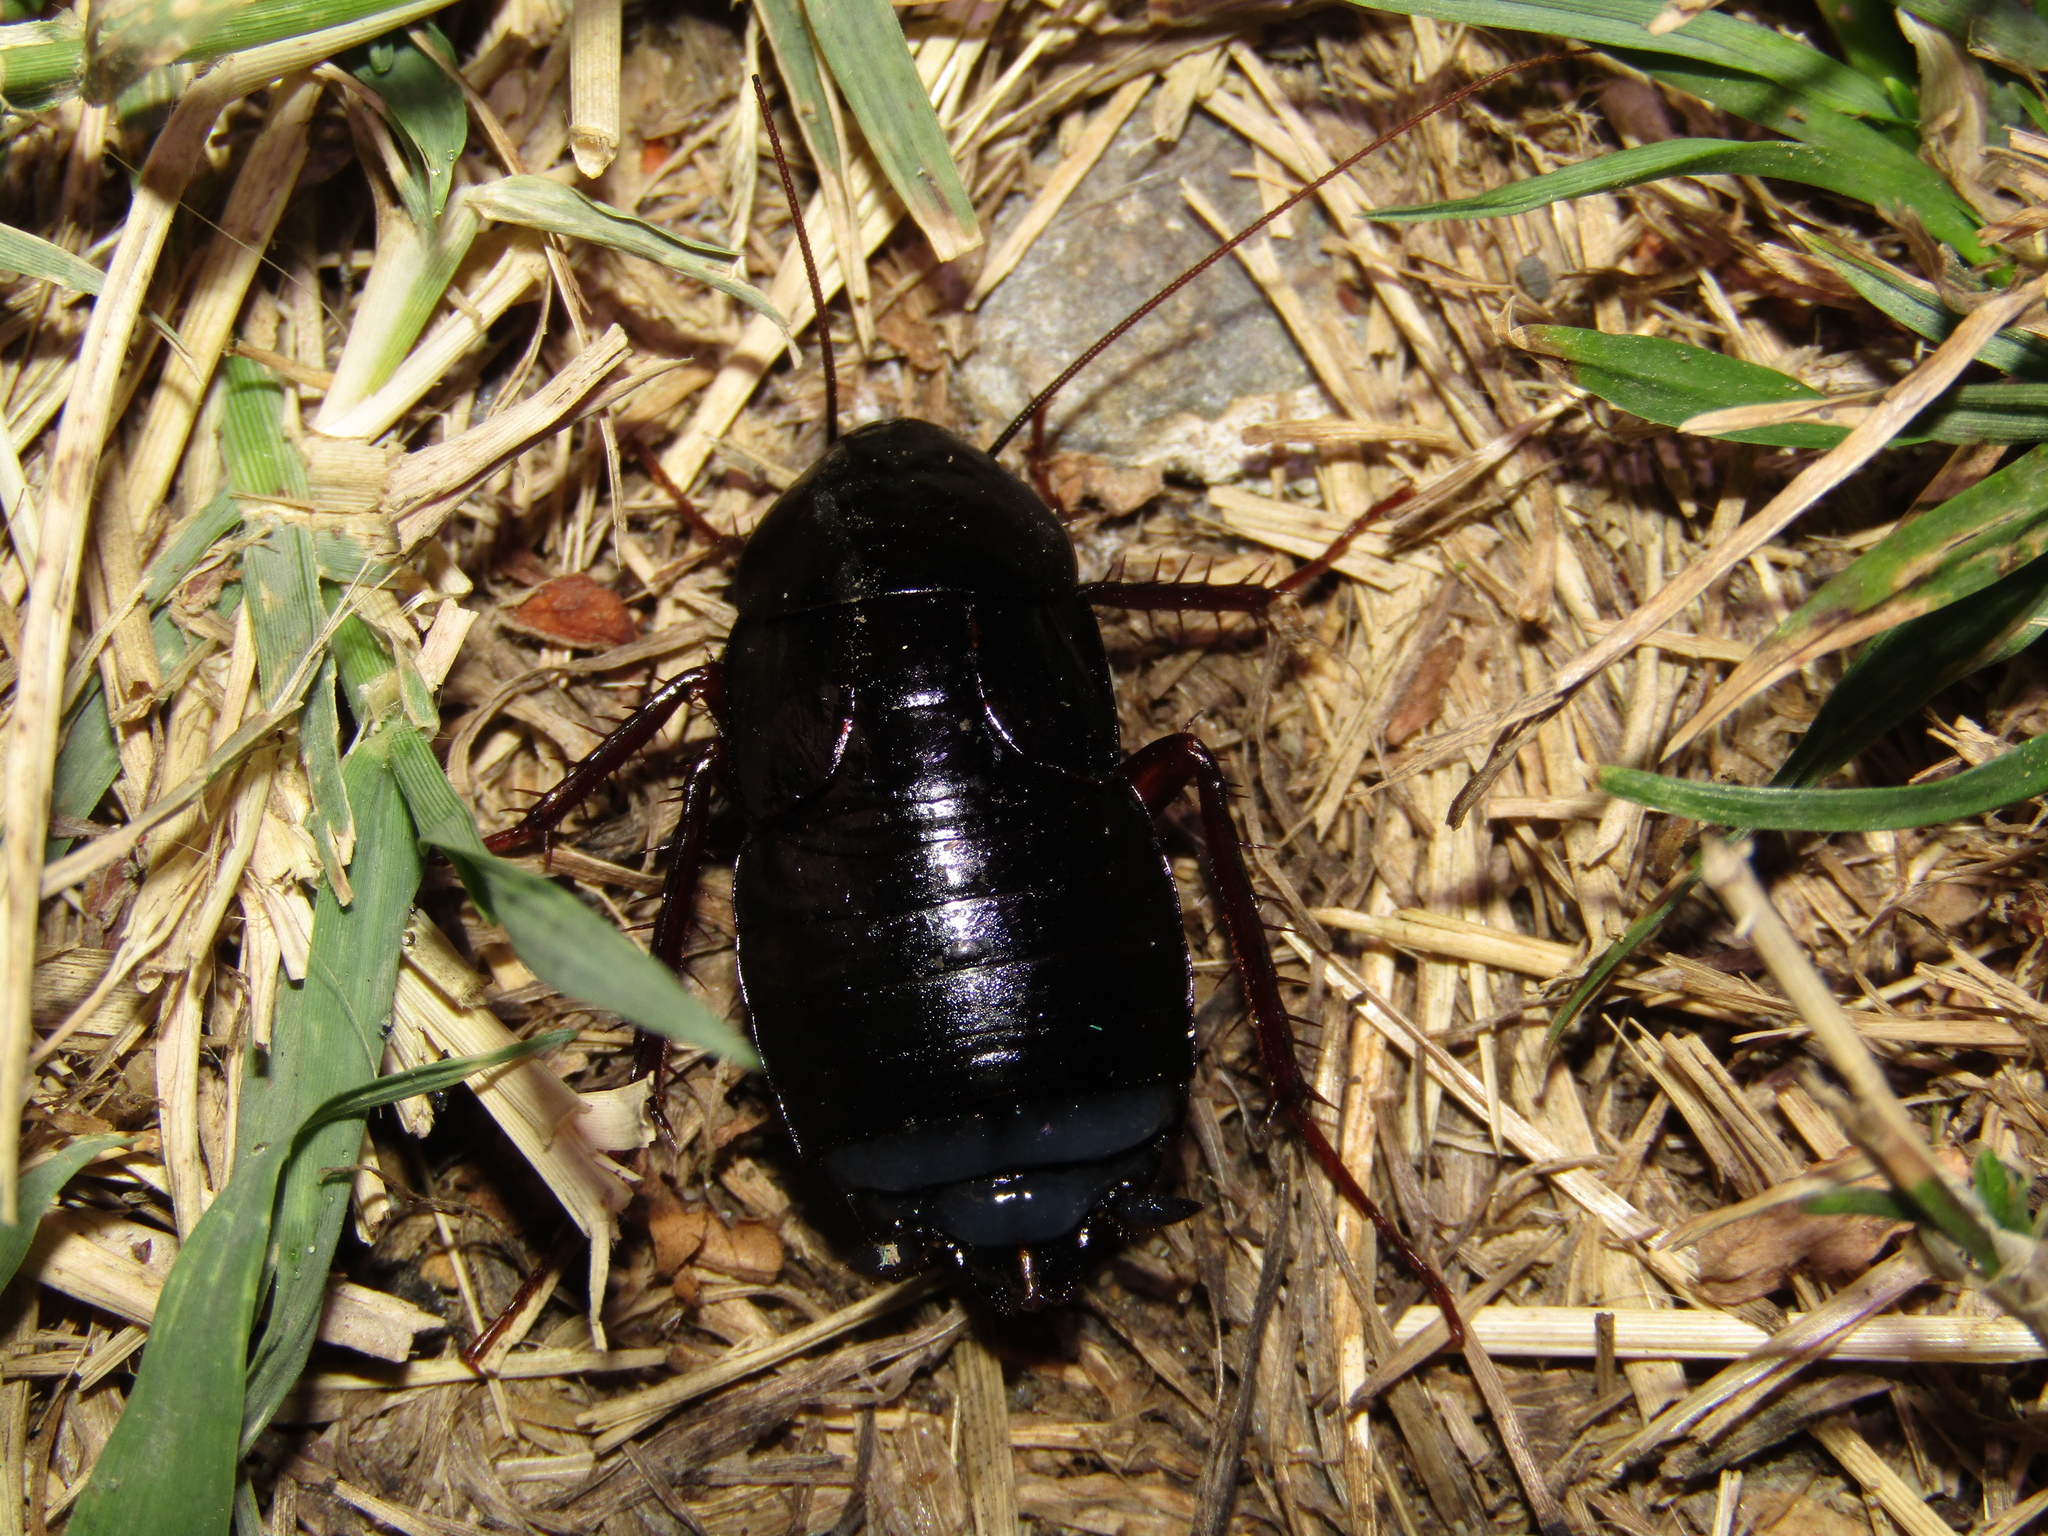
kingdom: Animalia
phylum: Arthropoda
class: Insecta
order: Blattodea
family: Blattidae
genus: Blatta
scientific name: Blatta orientalis
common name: Oriental cockroach
